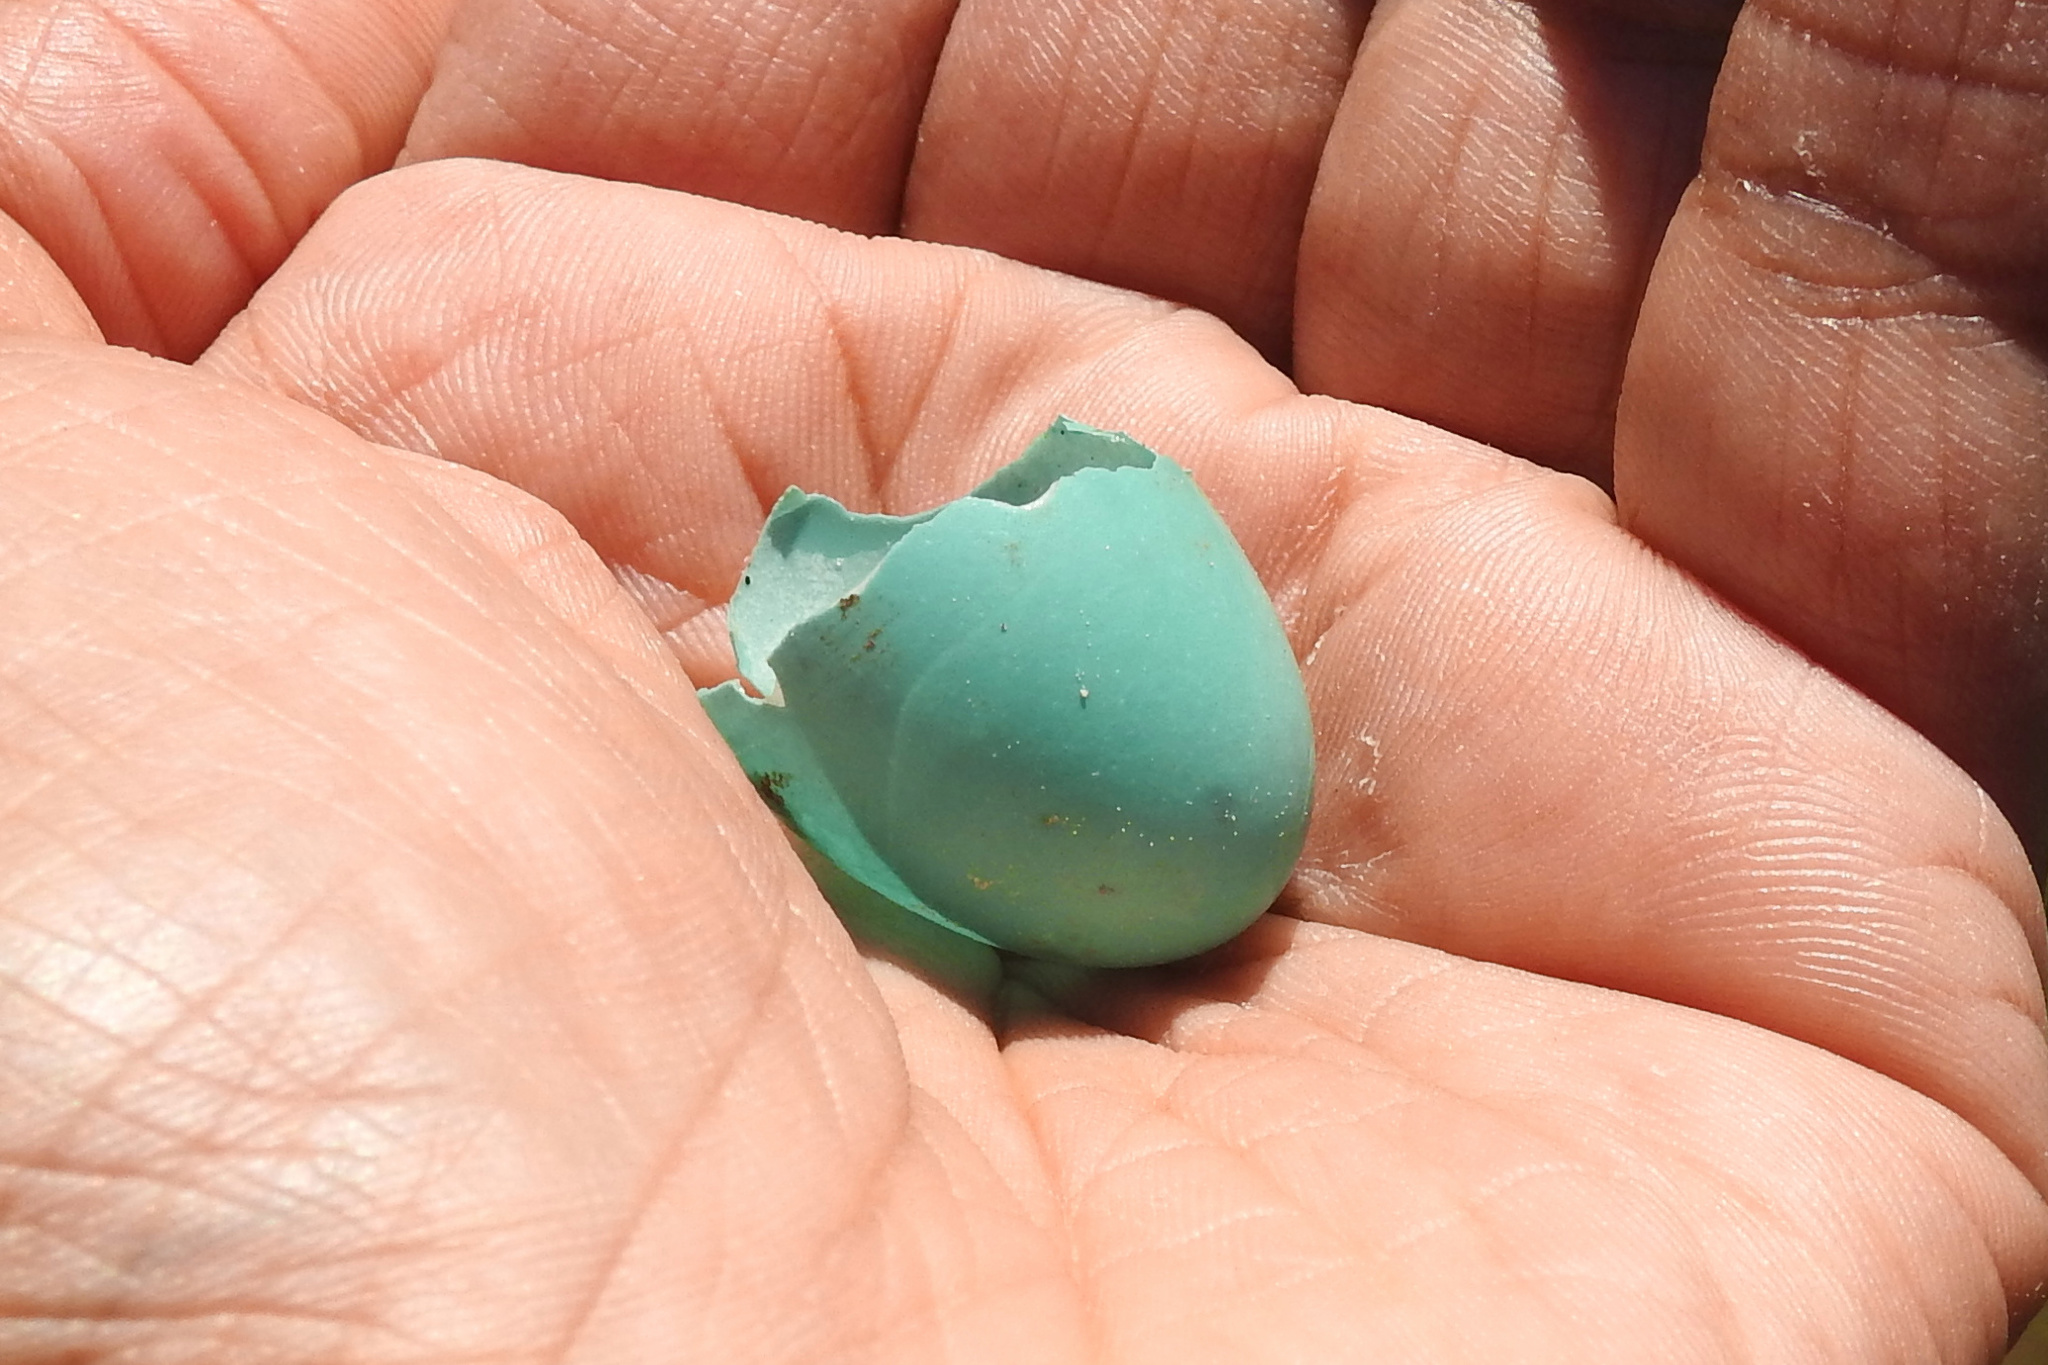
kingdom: Animalia
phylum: Chordata
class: Aves
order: Passeriformes
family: Turdidae
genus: Turdus
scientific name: Turdus migratorius
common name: American robin
